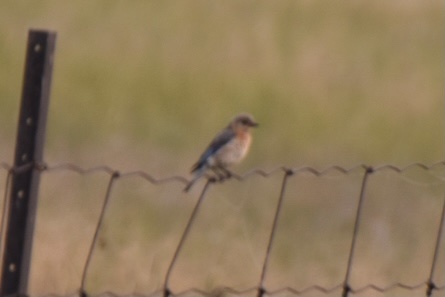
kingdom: Animalia
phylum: Chordata
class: Aves
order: Passeriformes
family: Turdidae
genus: Sialia
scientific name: Sialia sialis
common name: Eastern bluebird
